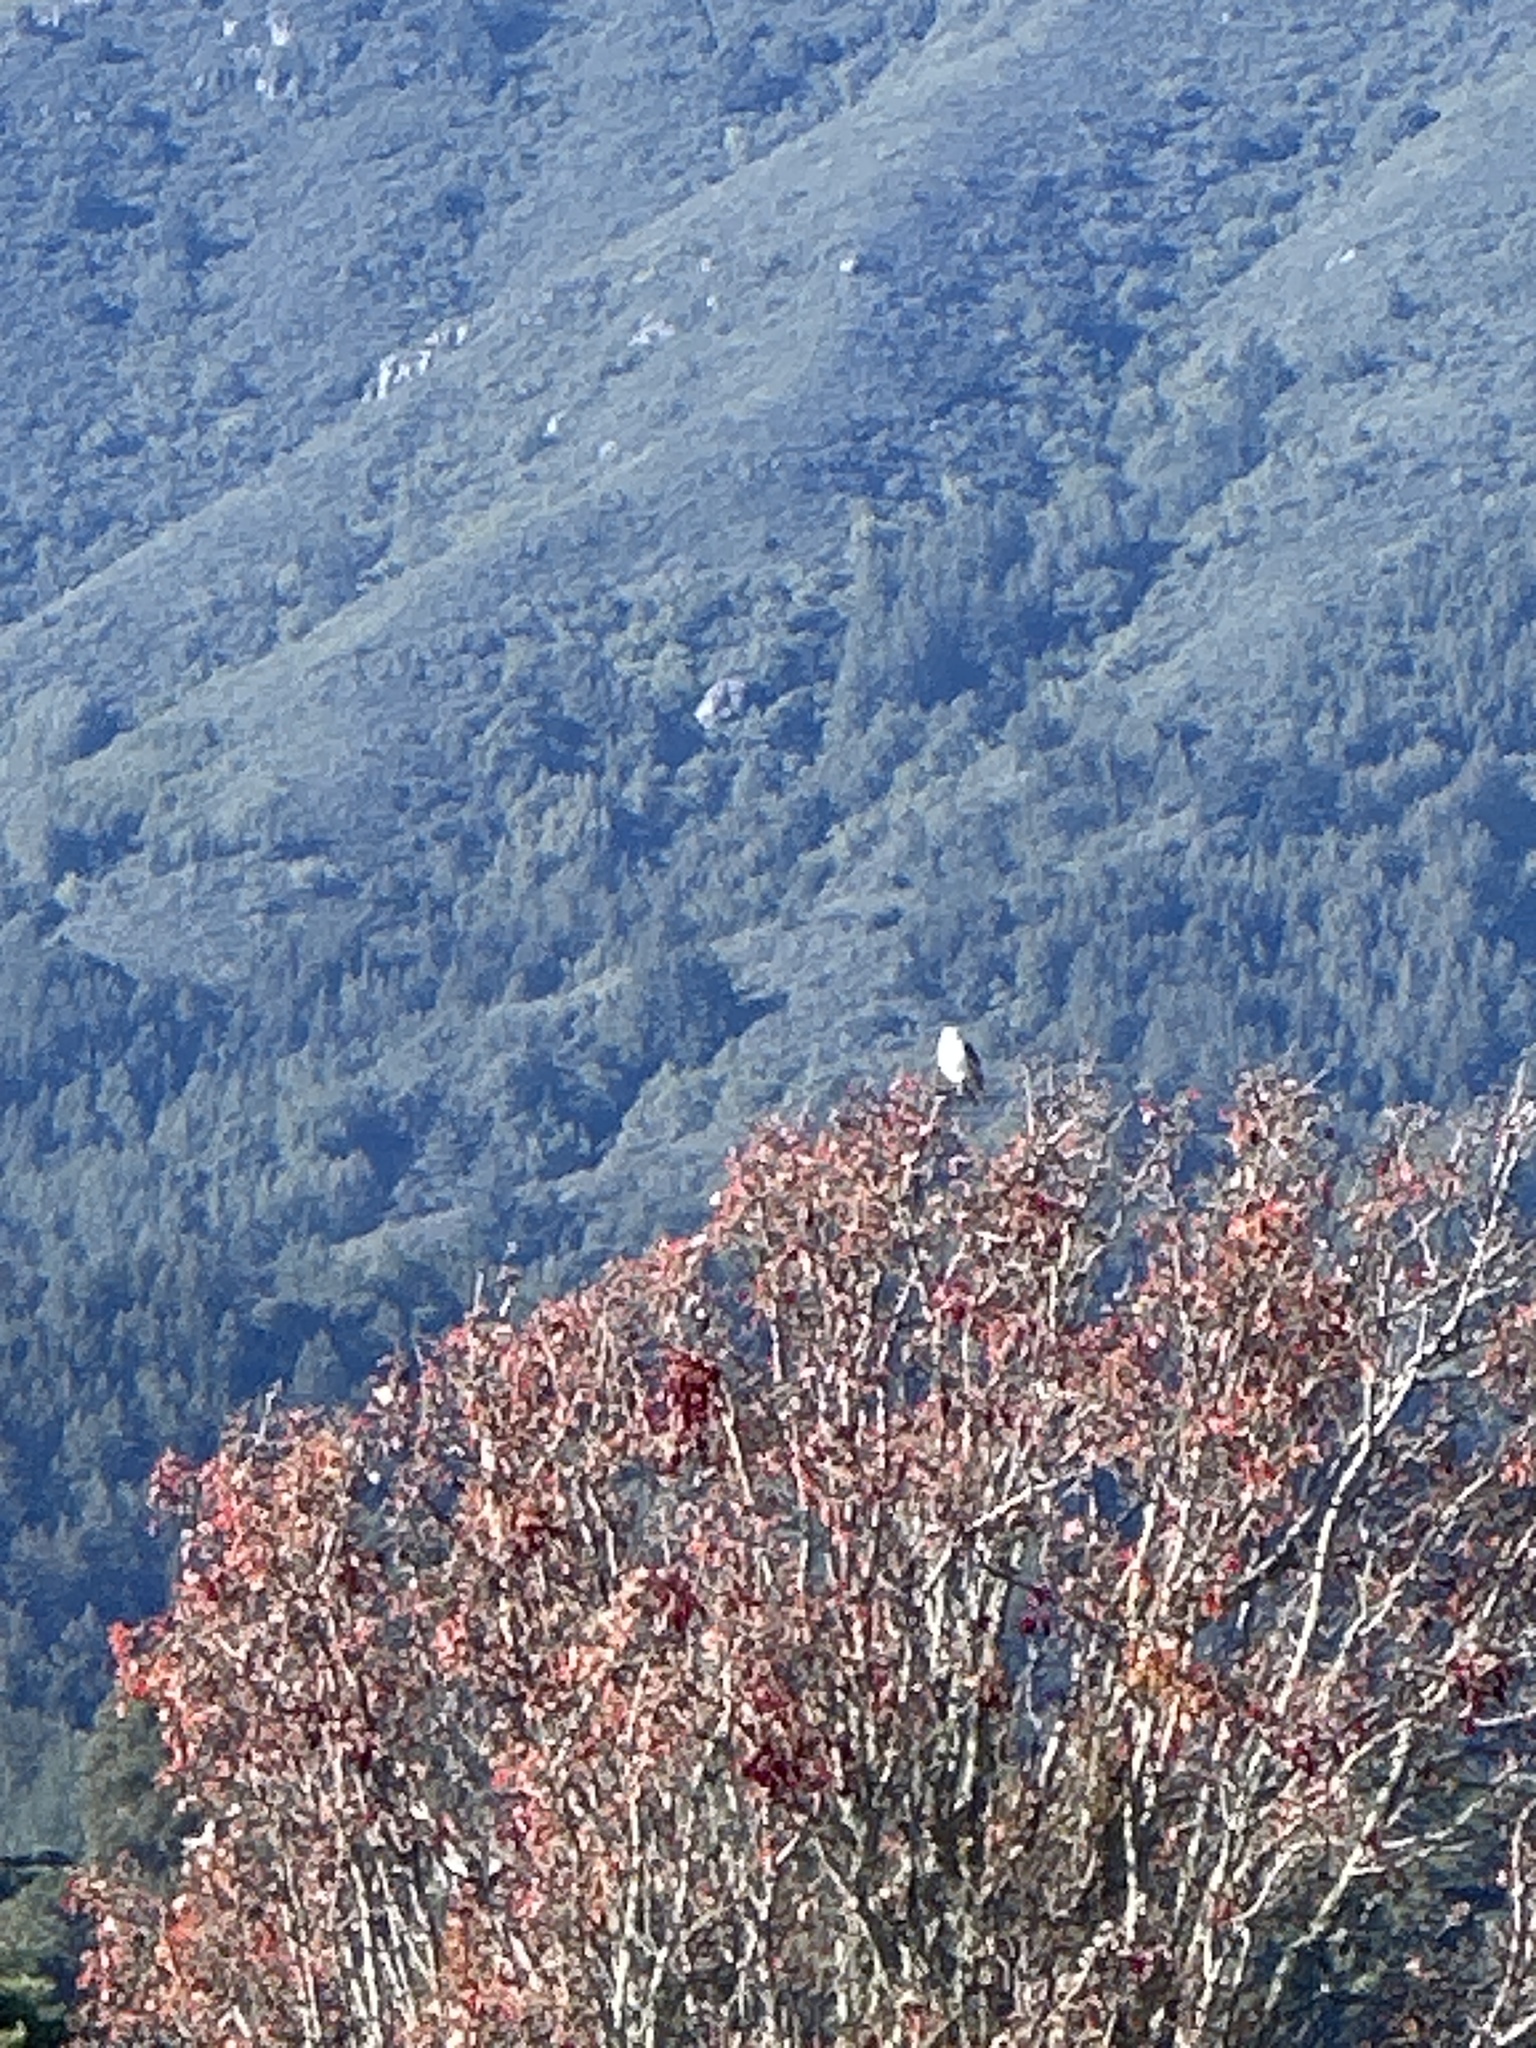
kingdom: Animalia
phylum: Chordata
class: Aves
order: Accipitriformes
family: Accipitridae
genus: Elanus
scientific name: Elanus leucurus
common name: White-tailed kite
